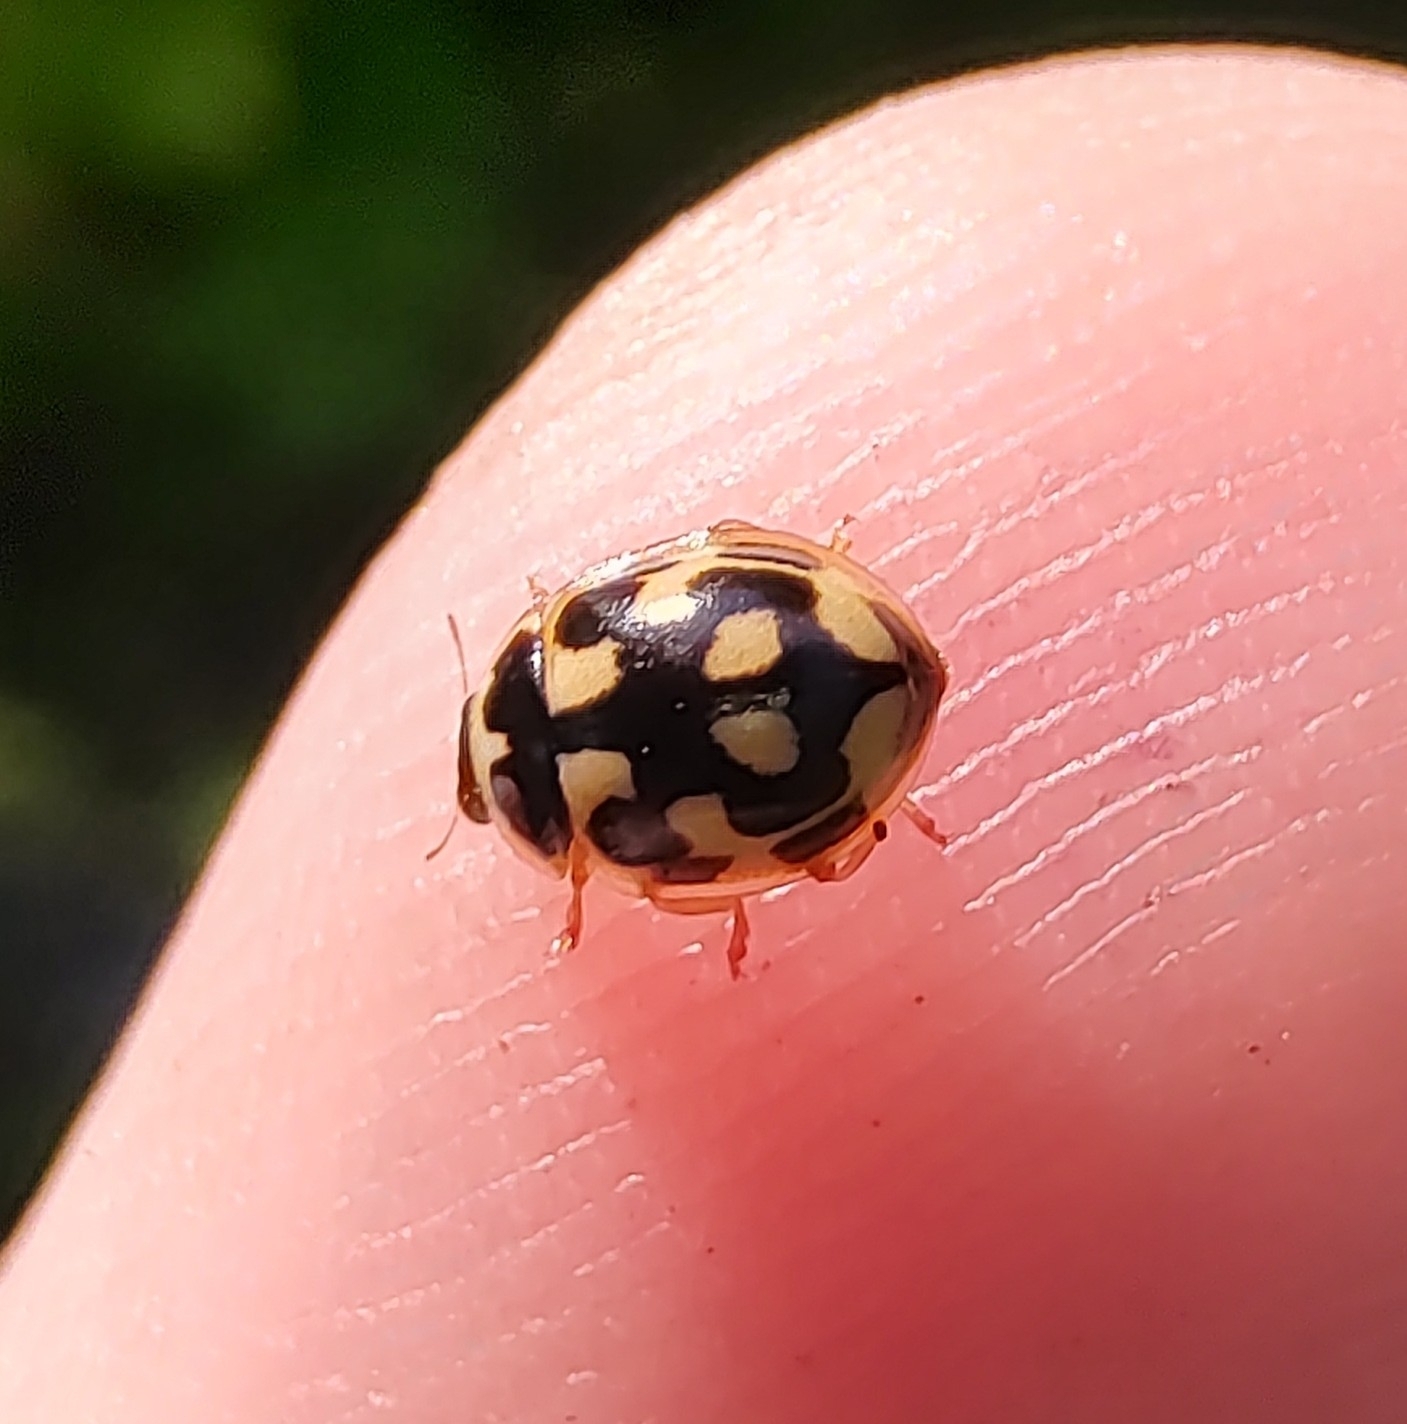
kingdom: Animalia
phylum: Arthropoda
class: Insecta
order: Coleoptera
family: Coccinellidae
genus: Propylaea
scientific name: Propylaea quatuordecimpunctata
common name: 14-spotted ladybird beetle
